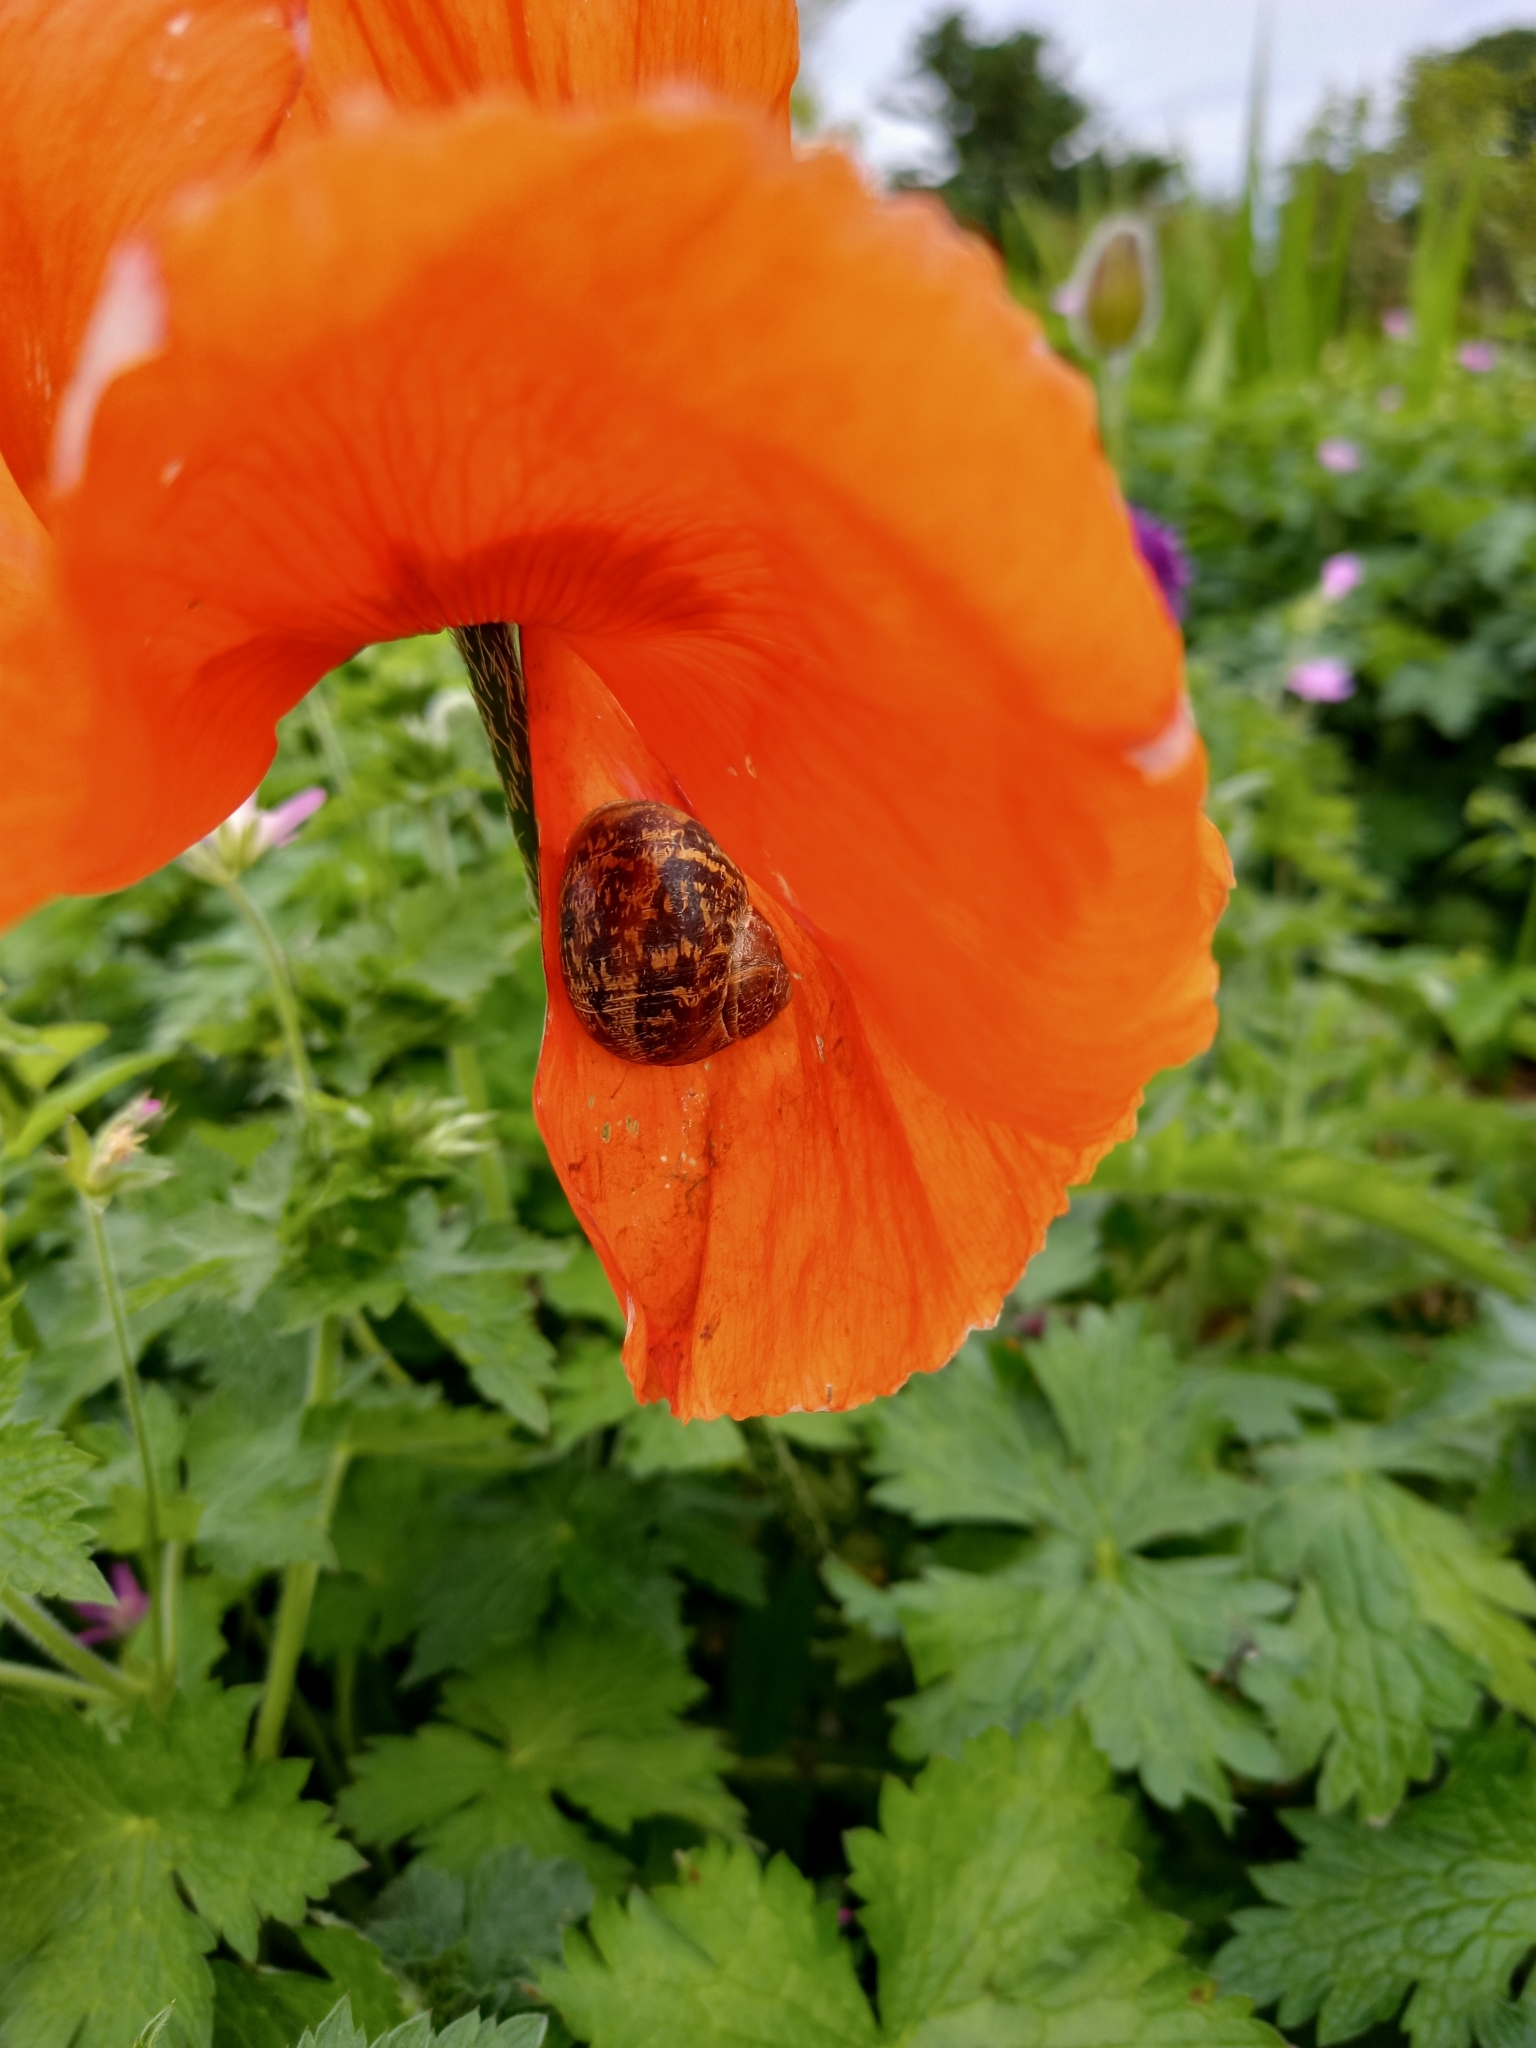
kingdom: Animalia
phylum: Mollusca
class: Gastropoda
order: Stylommatophora
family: Helicidae
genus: Cornu
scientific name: Cornu aspersum
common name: Brown garden snail
